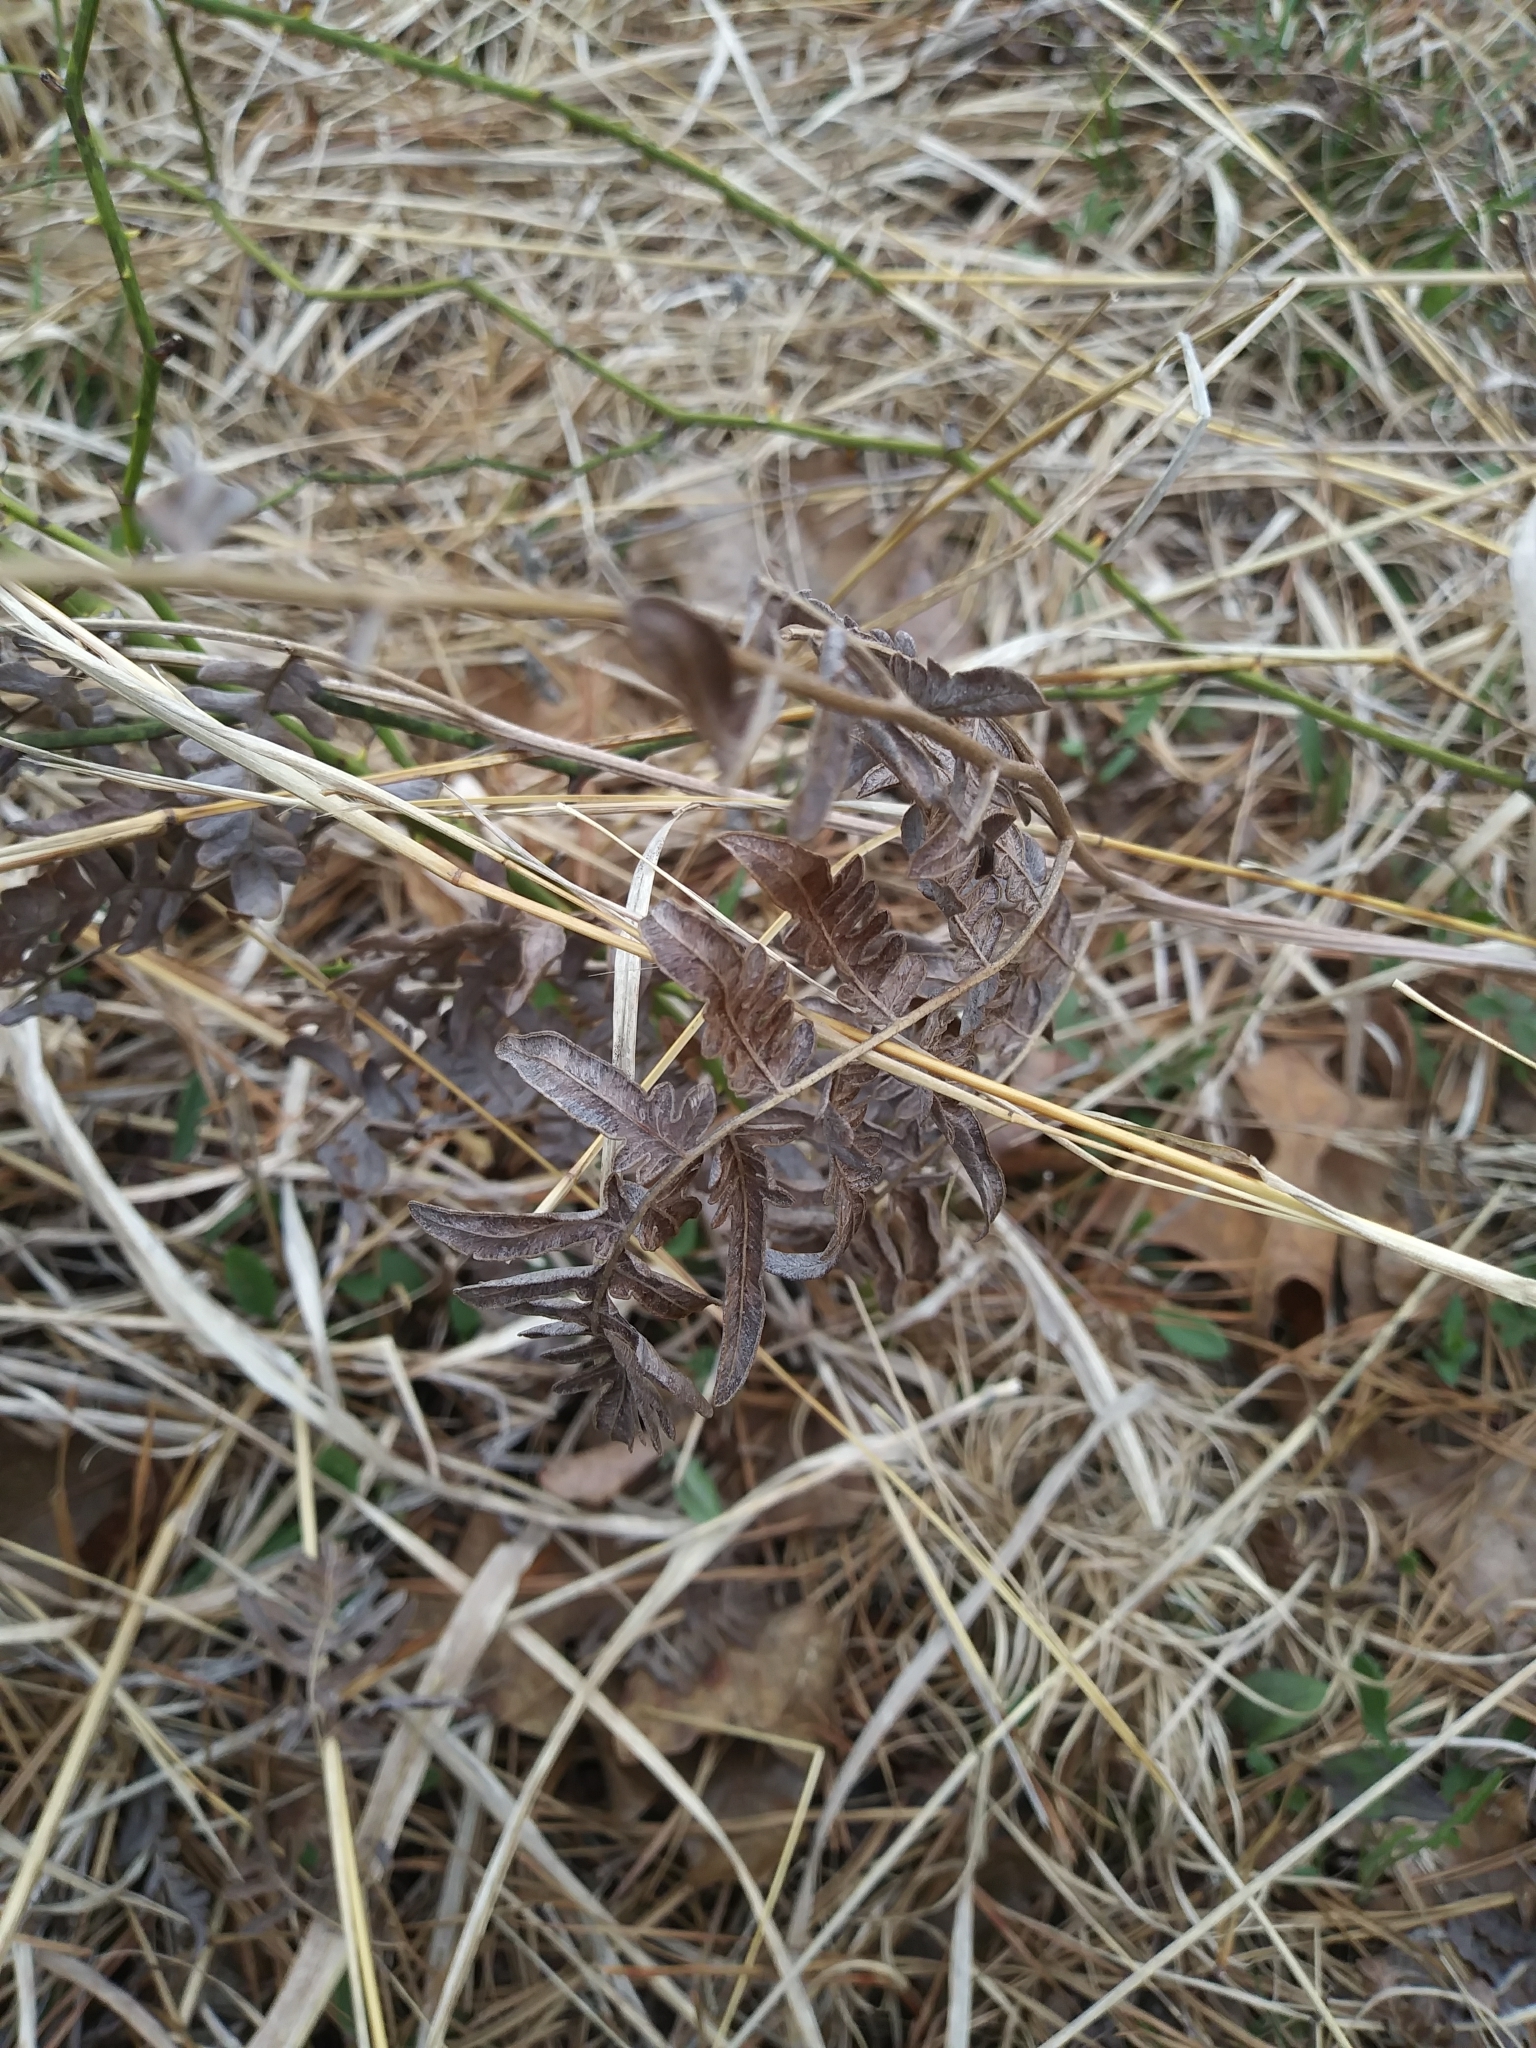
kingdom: Plantae
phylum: Tracheophyta
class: Polypodiopsida
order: Polypodiales
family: Dennstaedtiaceae
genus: Pteridium
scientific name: Pteridium aquilinum
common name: Bracken
